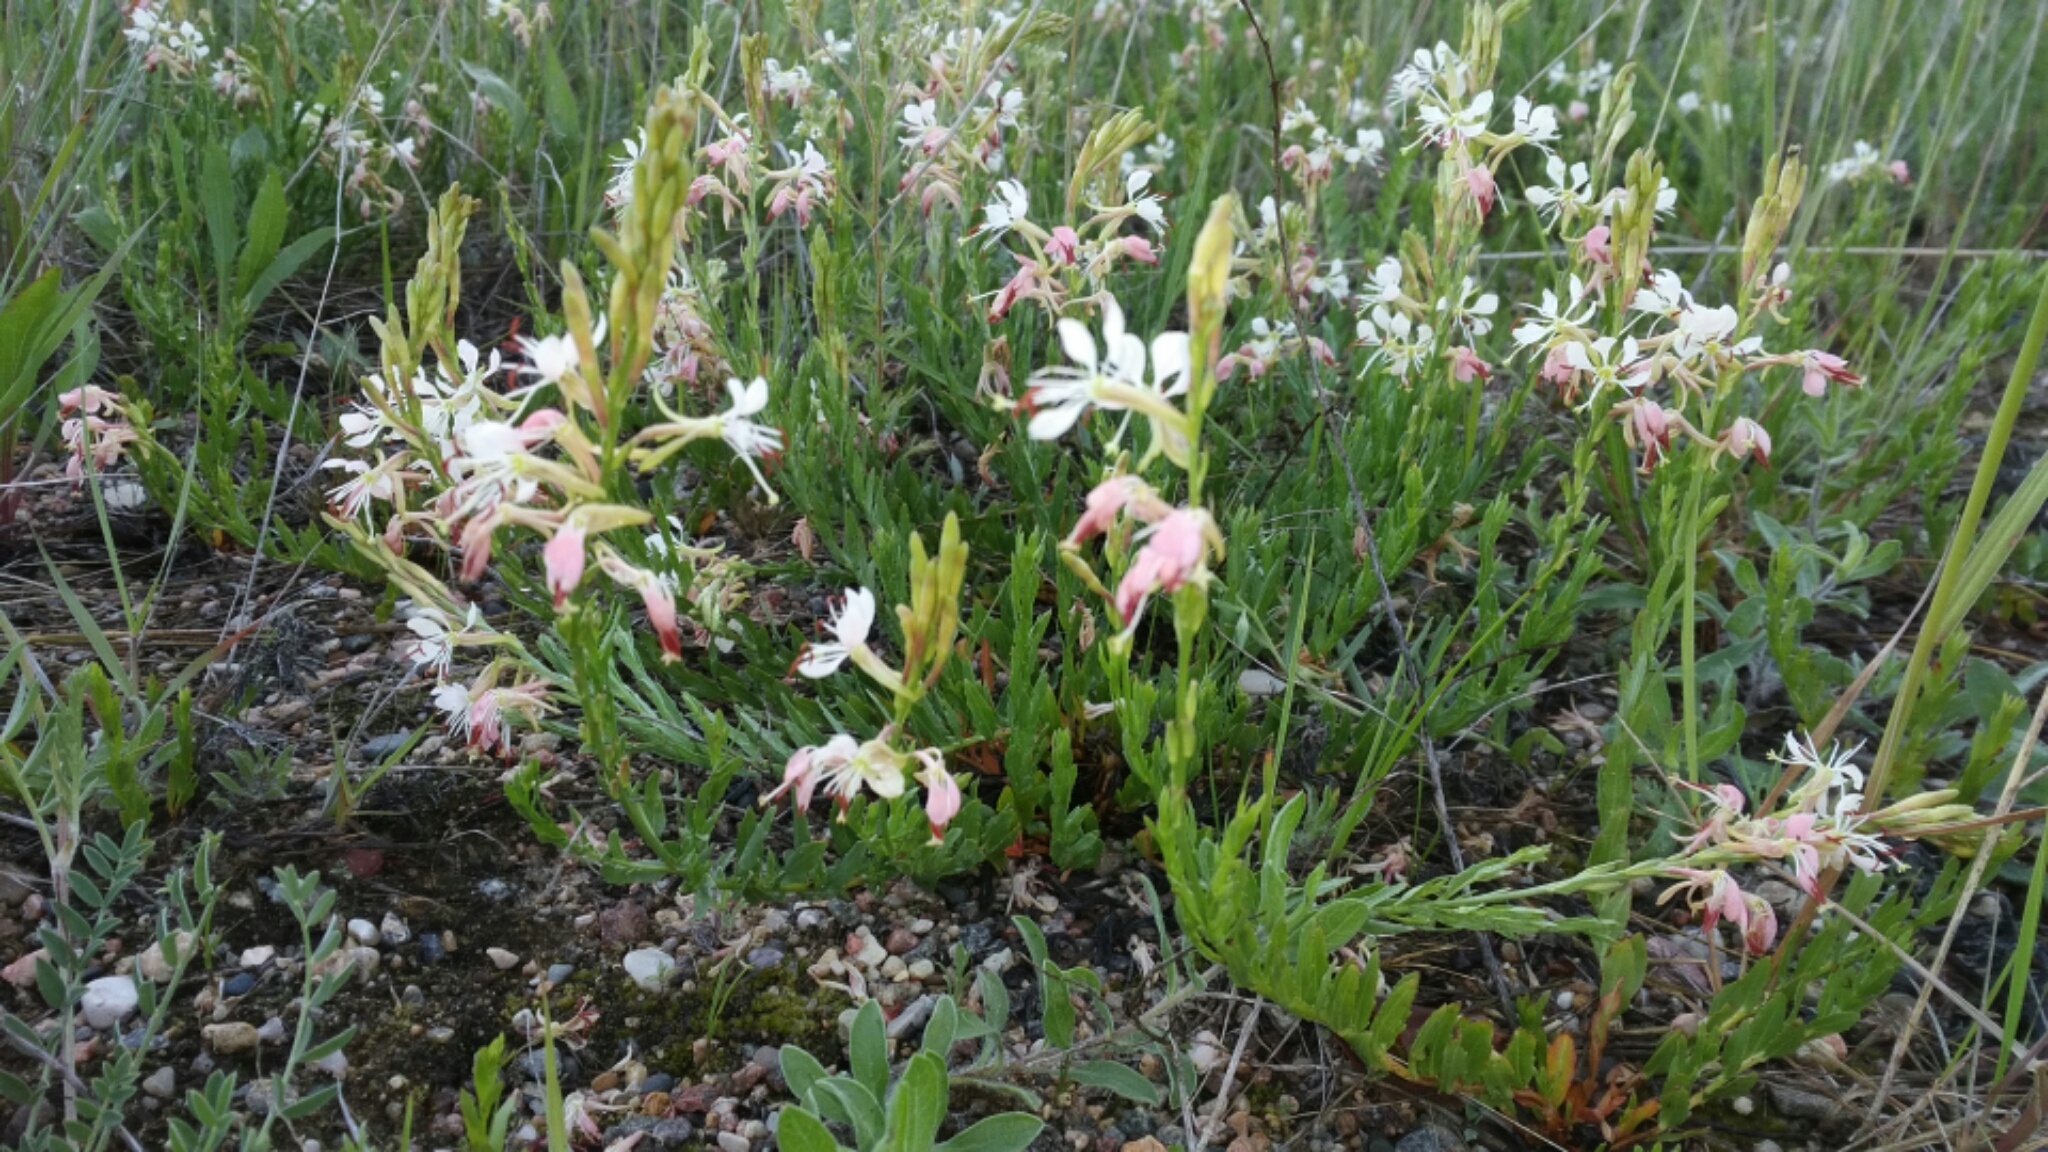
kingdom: Plantae
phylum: Tracheophyta
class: Magnoliopsida
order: Myrtales
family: Onagraceae
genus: Oenothera
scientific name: Oenothera suffrutescens
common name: Scarlet beeblossom
